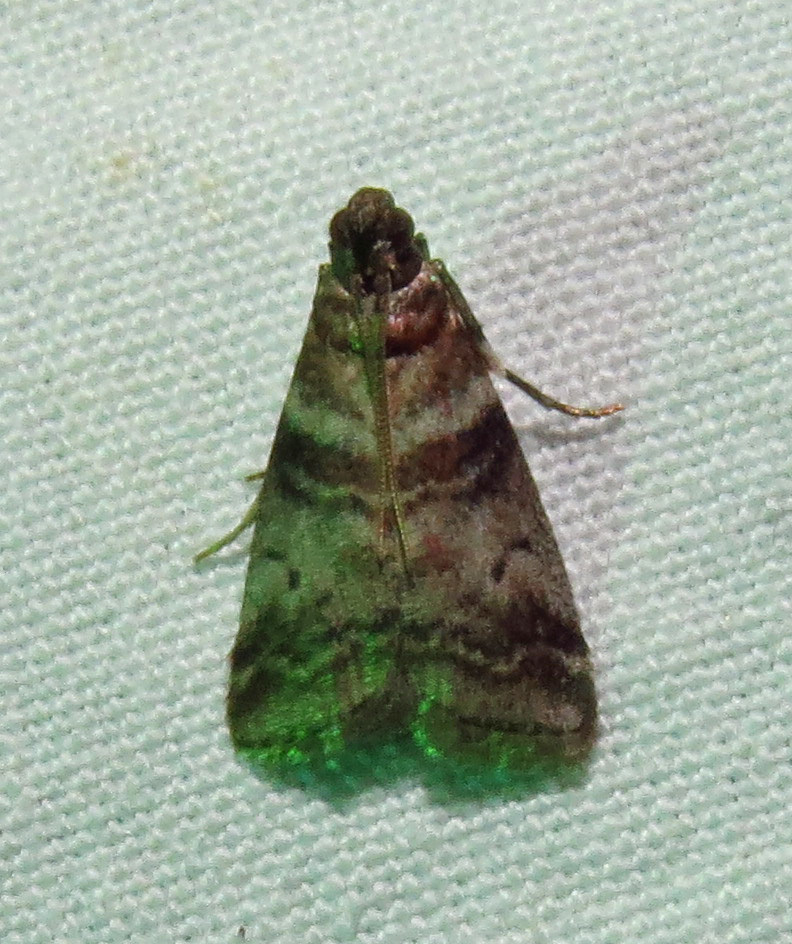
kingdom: Animalia
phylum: Arthropoda
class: Insecta
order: Lepidoptera
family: Pyralidae
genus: Sciota
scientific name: Sciota uvinella
